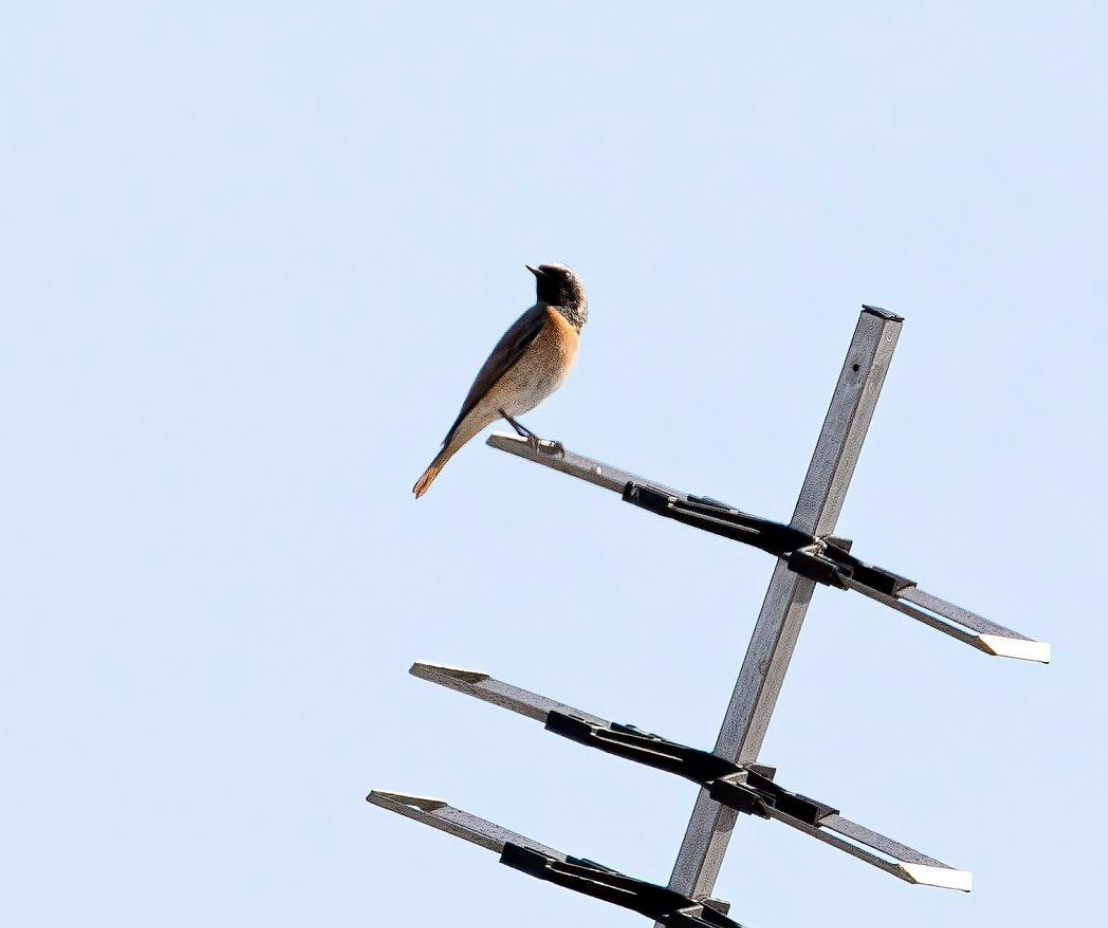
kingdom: Animalia
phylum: Chordata
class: Aves
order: Passeriformes
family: Muscicapidae
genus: Phoenicurus
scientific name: Phoenicurus phoenicurus
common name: Common redstart
